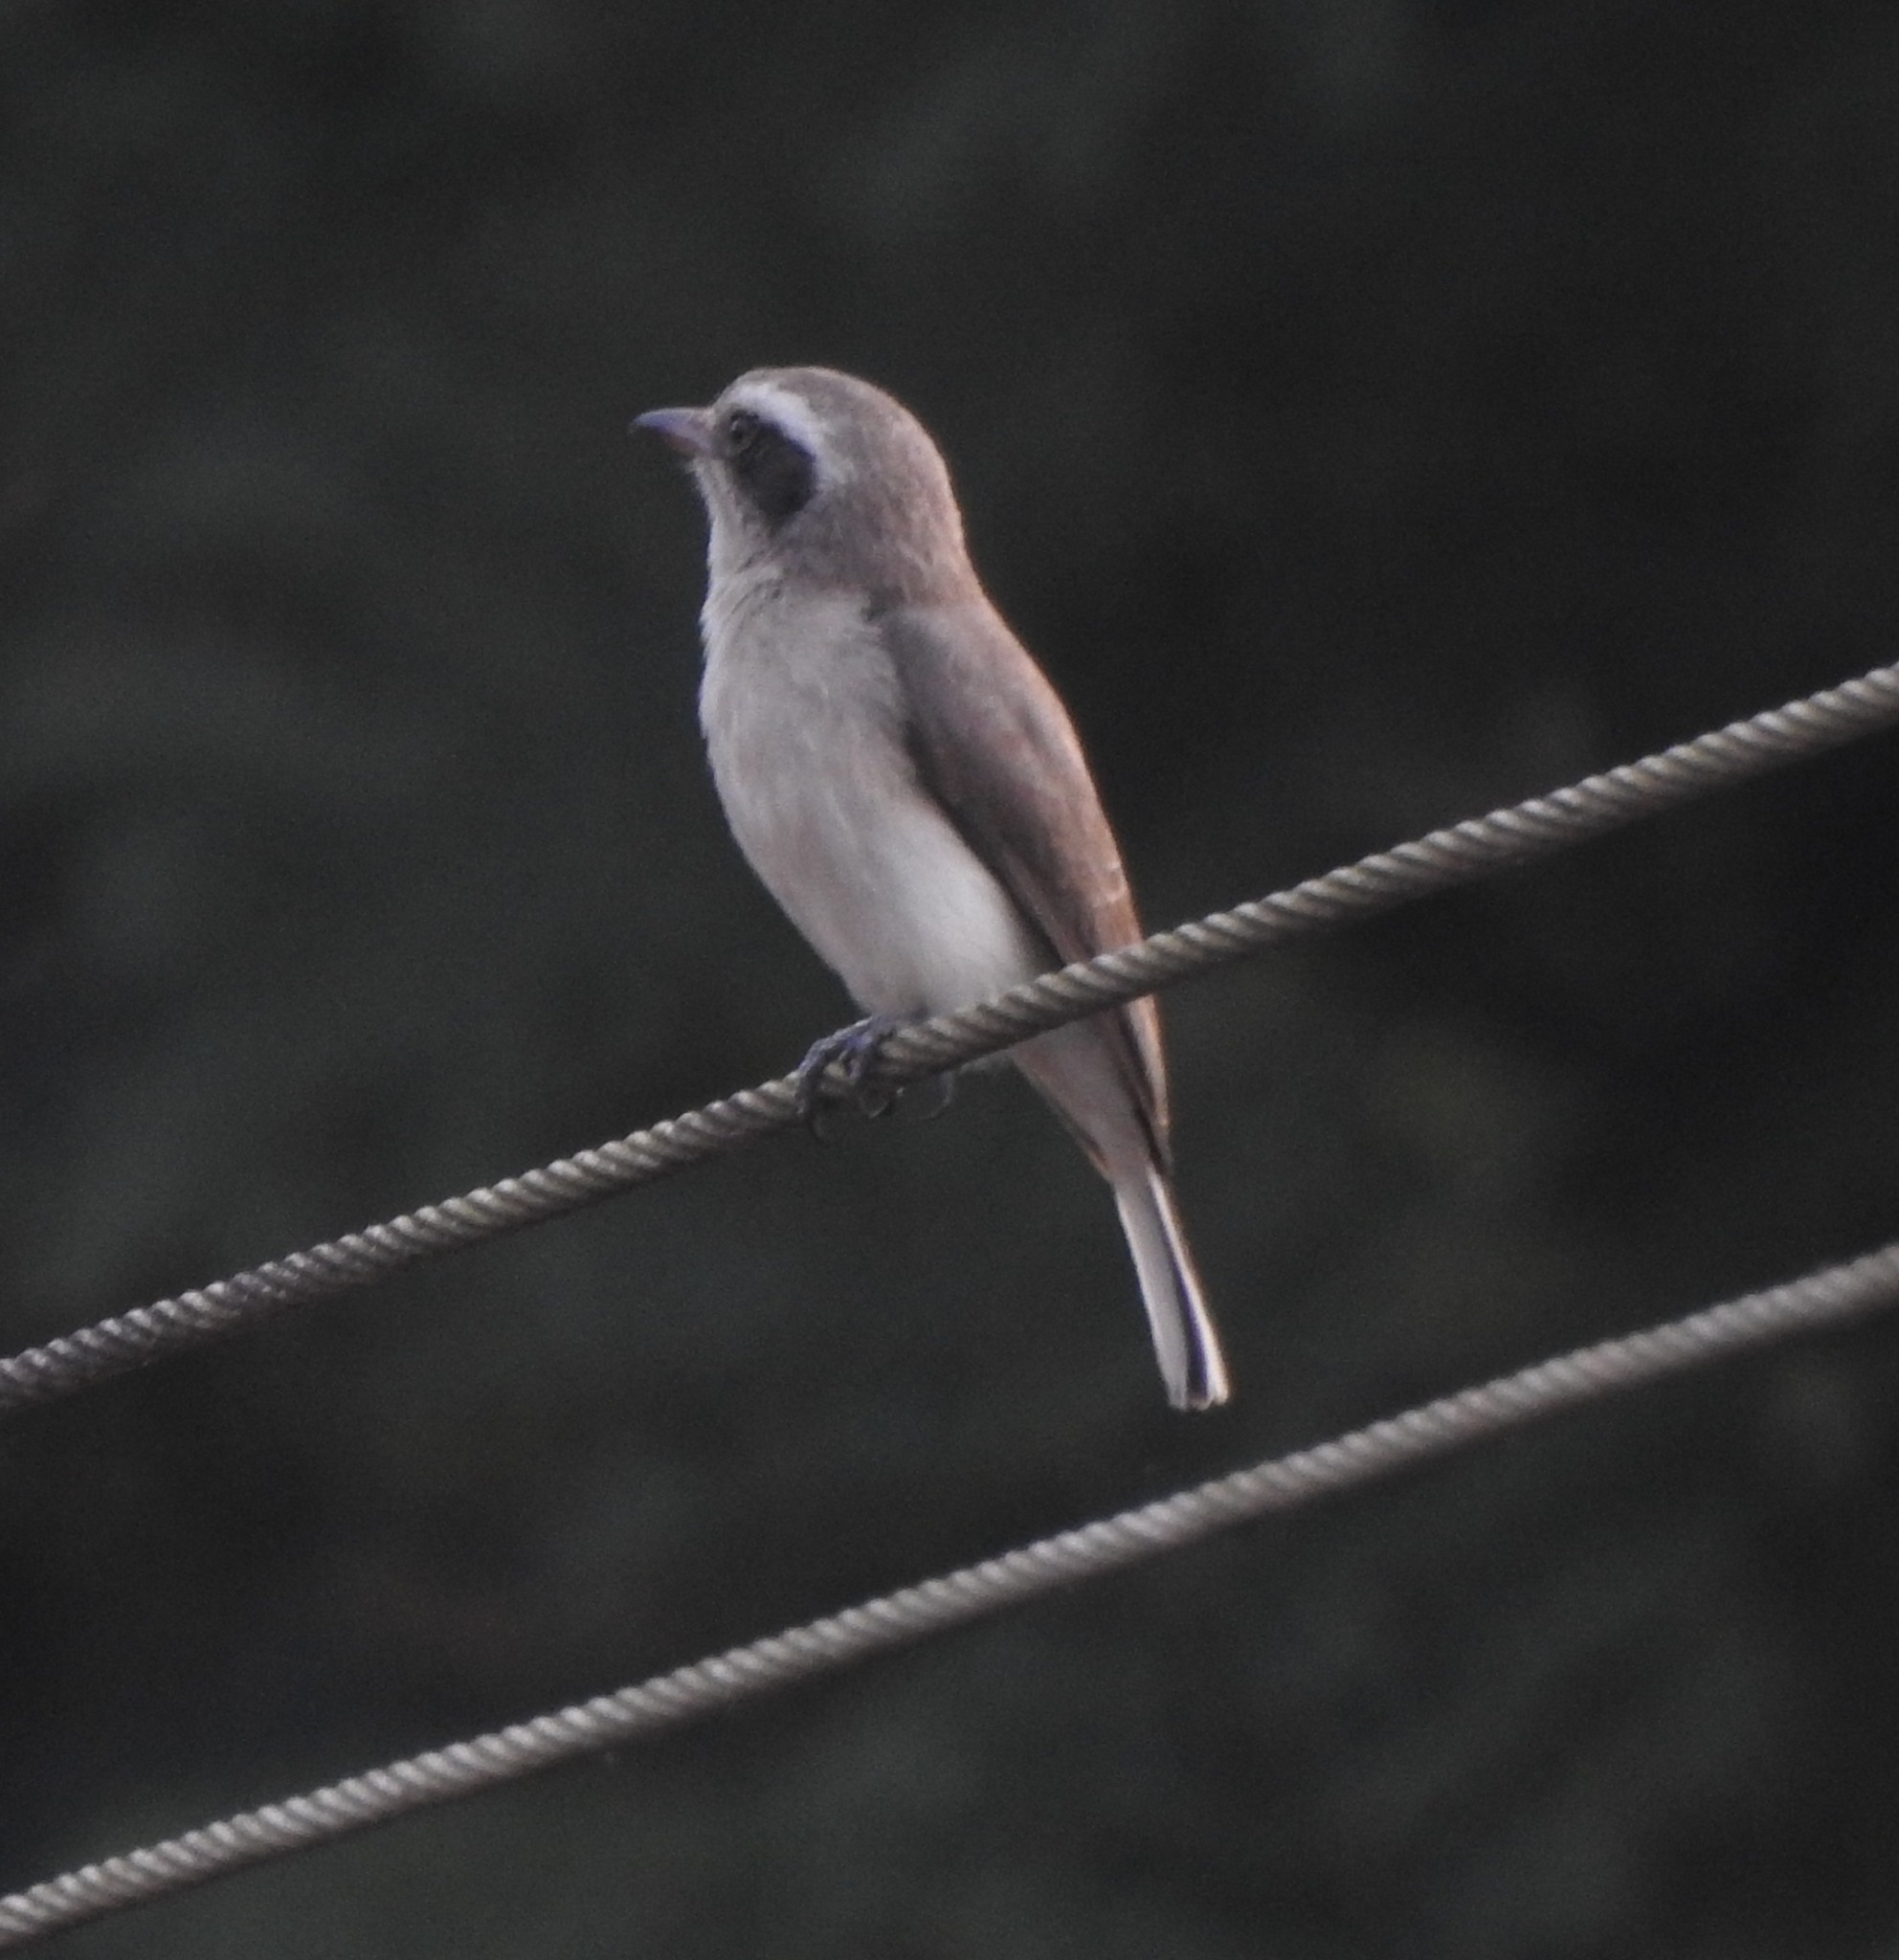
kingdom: Animalia
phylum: Chordata
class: Aves
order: Passeriformes
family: Tephrodornithidae
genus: Tephrodornis
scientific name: Tephrodornis pondicerianus
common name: Common woodshrike
